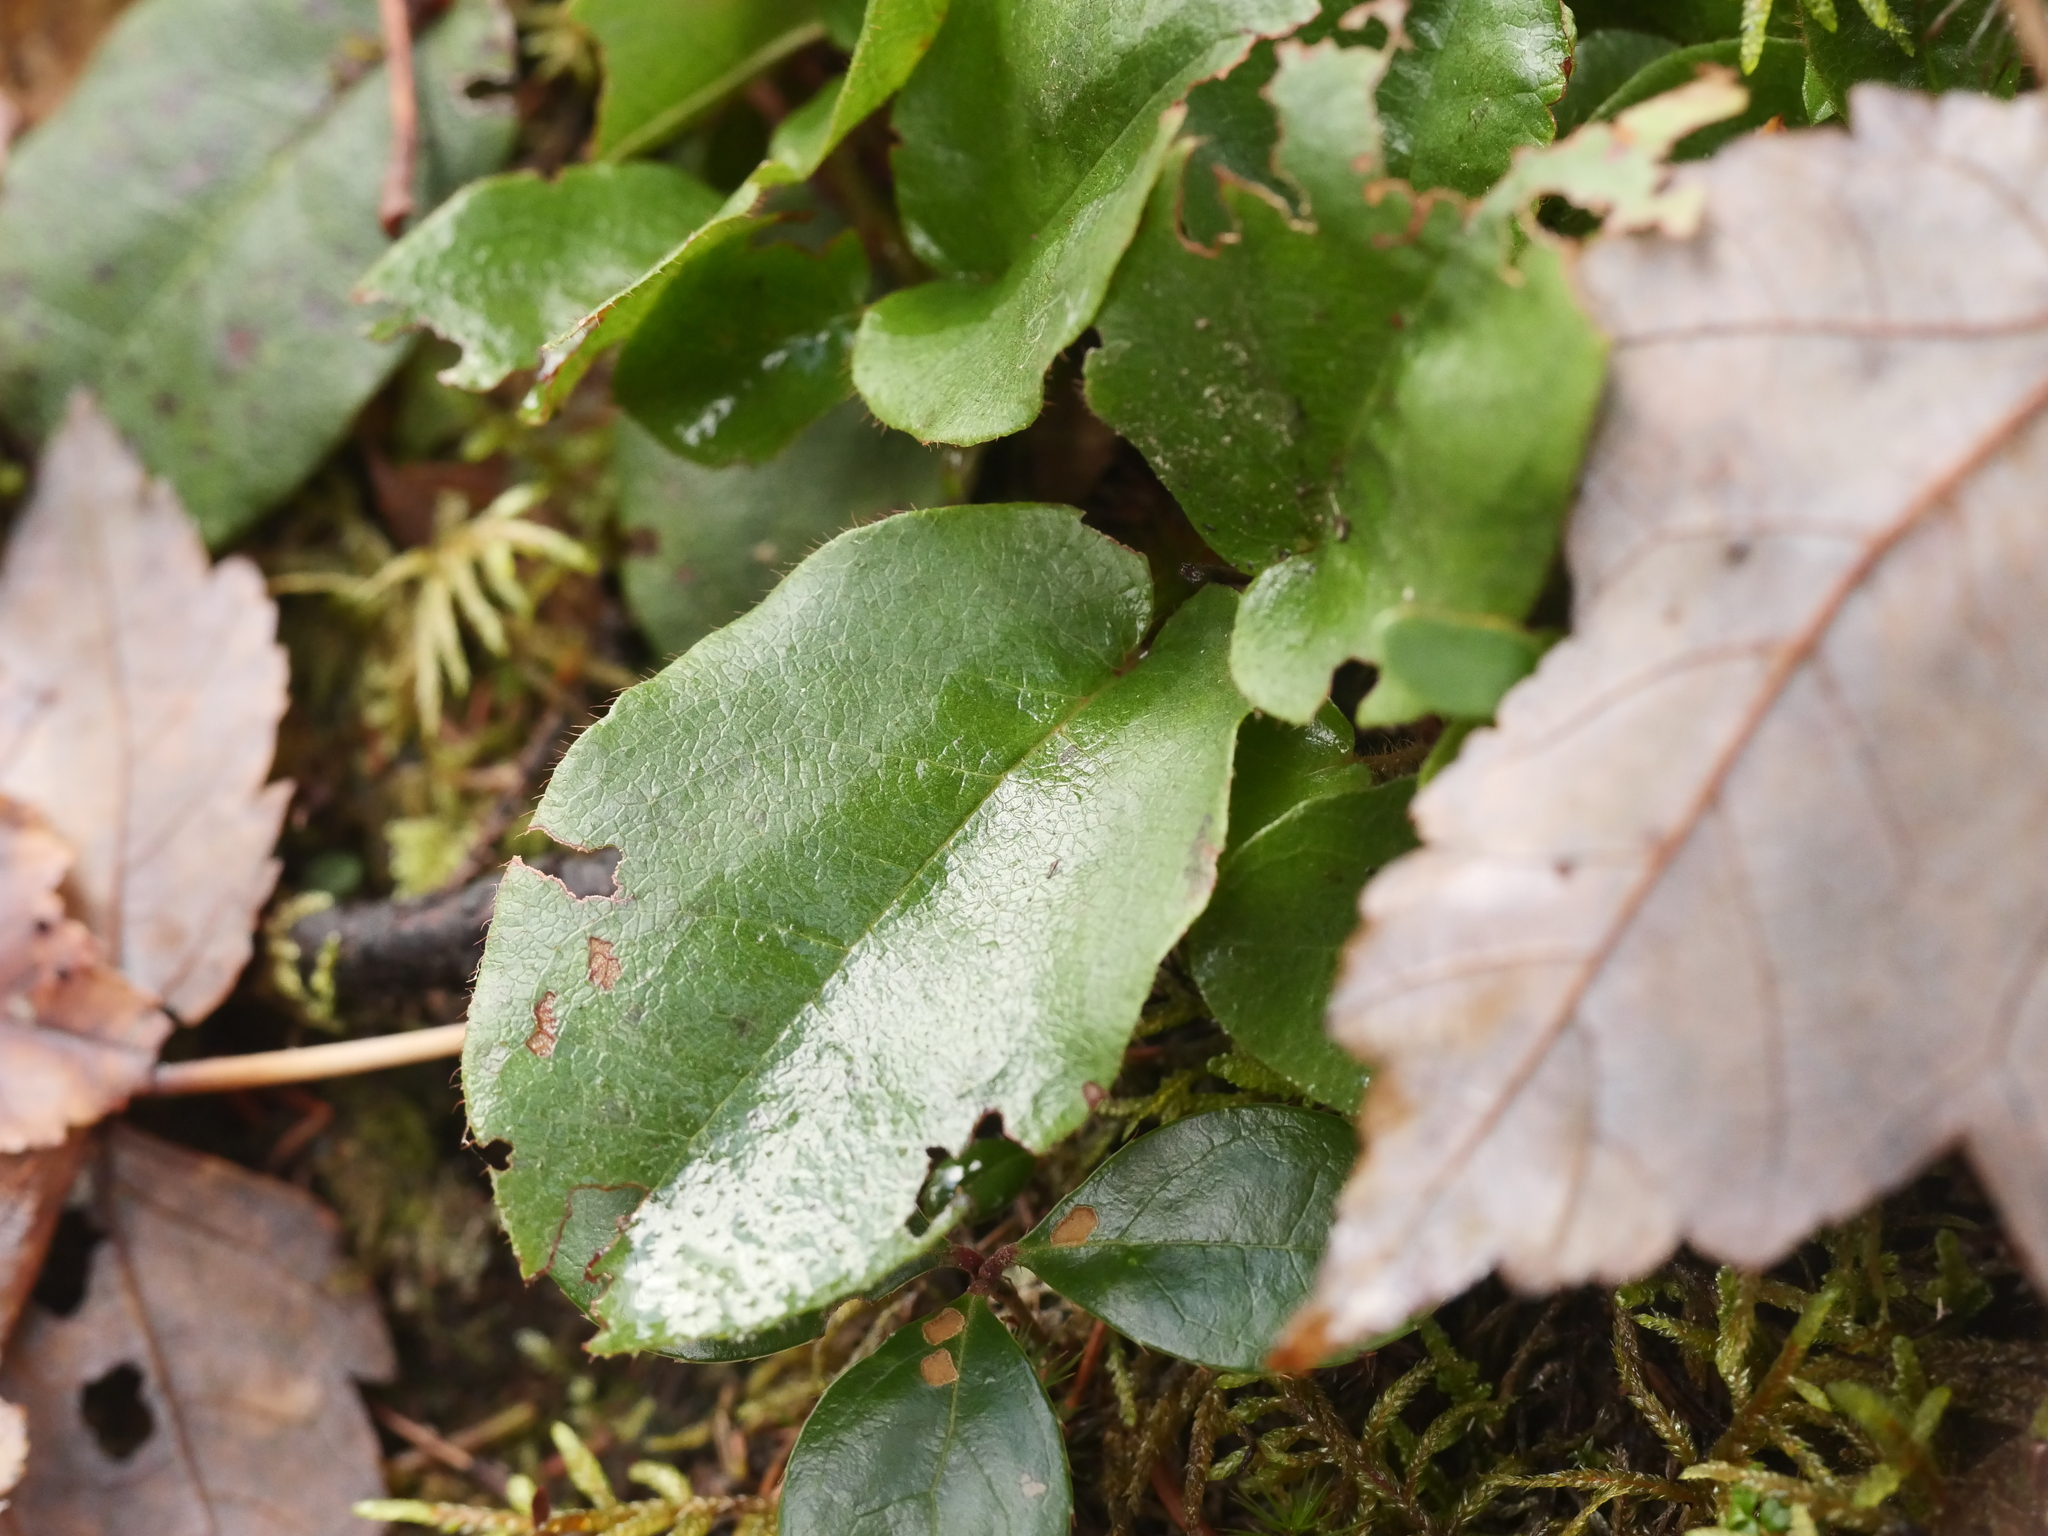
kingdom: Plantae
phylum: Tracheophyta
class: Magnoliopsida
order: Ericales
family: Ericaceae
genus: Epigaea
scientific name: Epigaea repens
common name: Gravelroot
